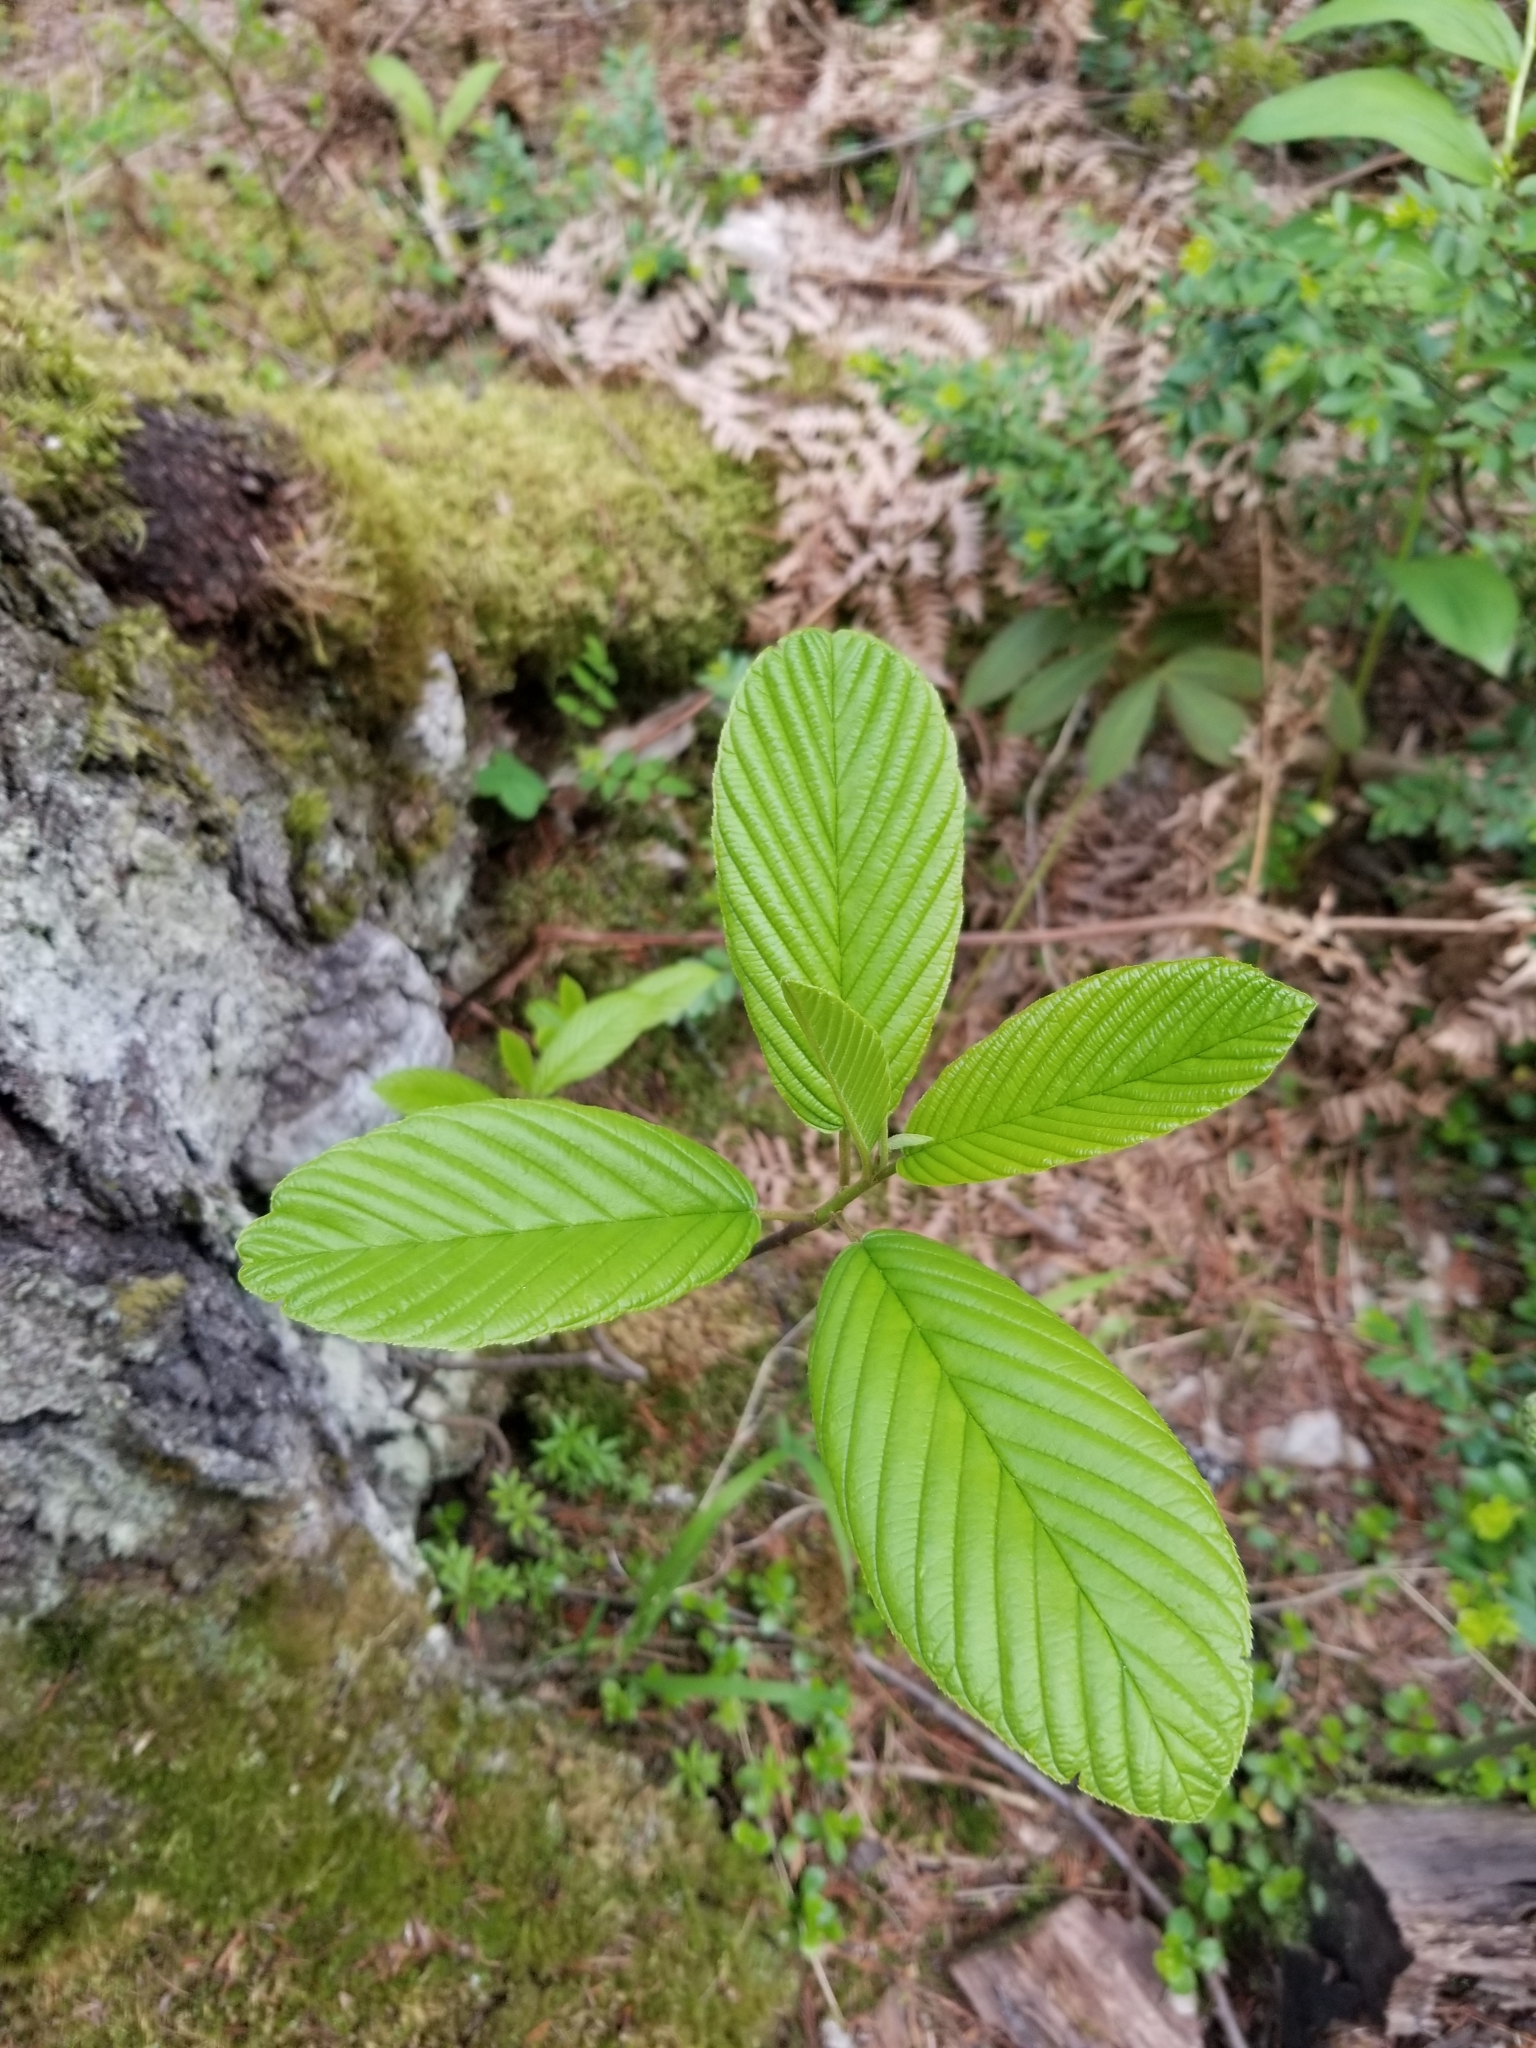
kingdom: Plantae
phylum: Tracheophyta
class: Magnoliopsida
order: Rosales
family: Rhamnaceae
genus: Frangula
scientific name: Frangula purshiana
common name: Cascara buckthorn
